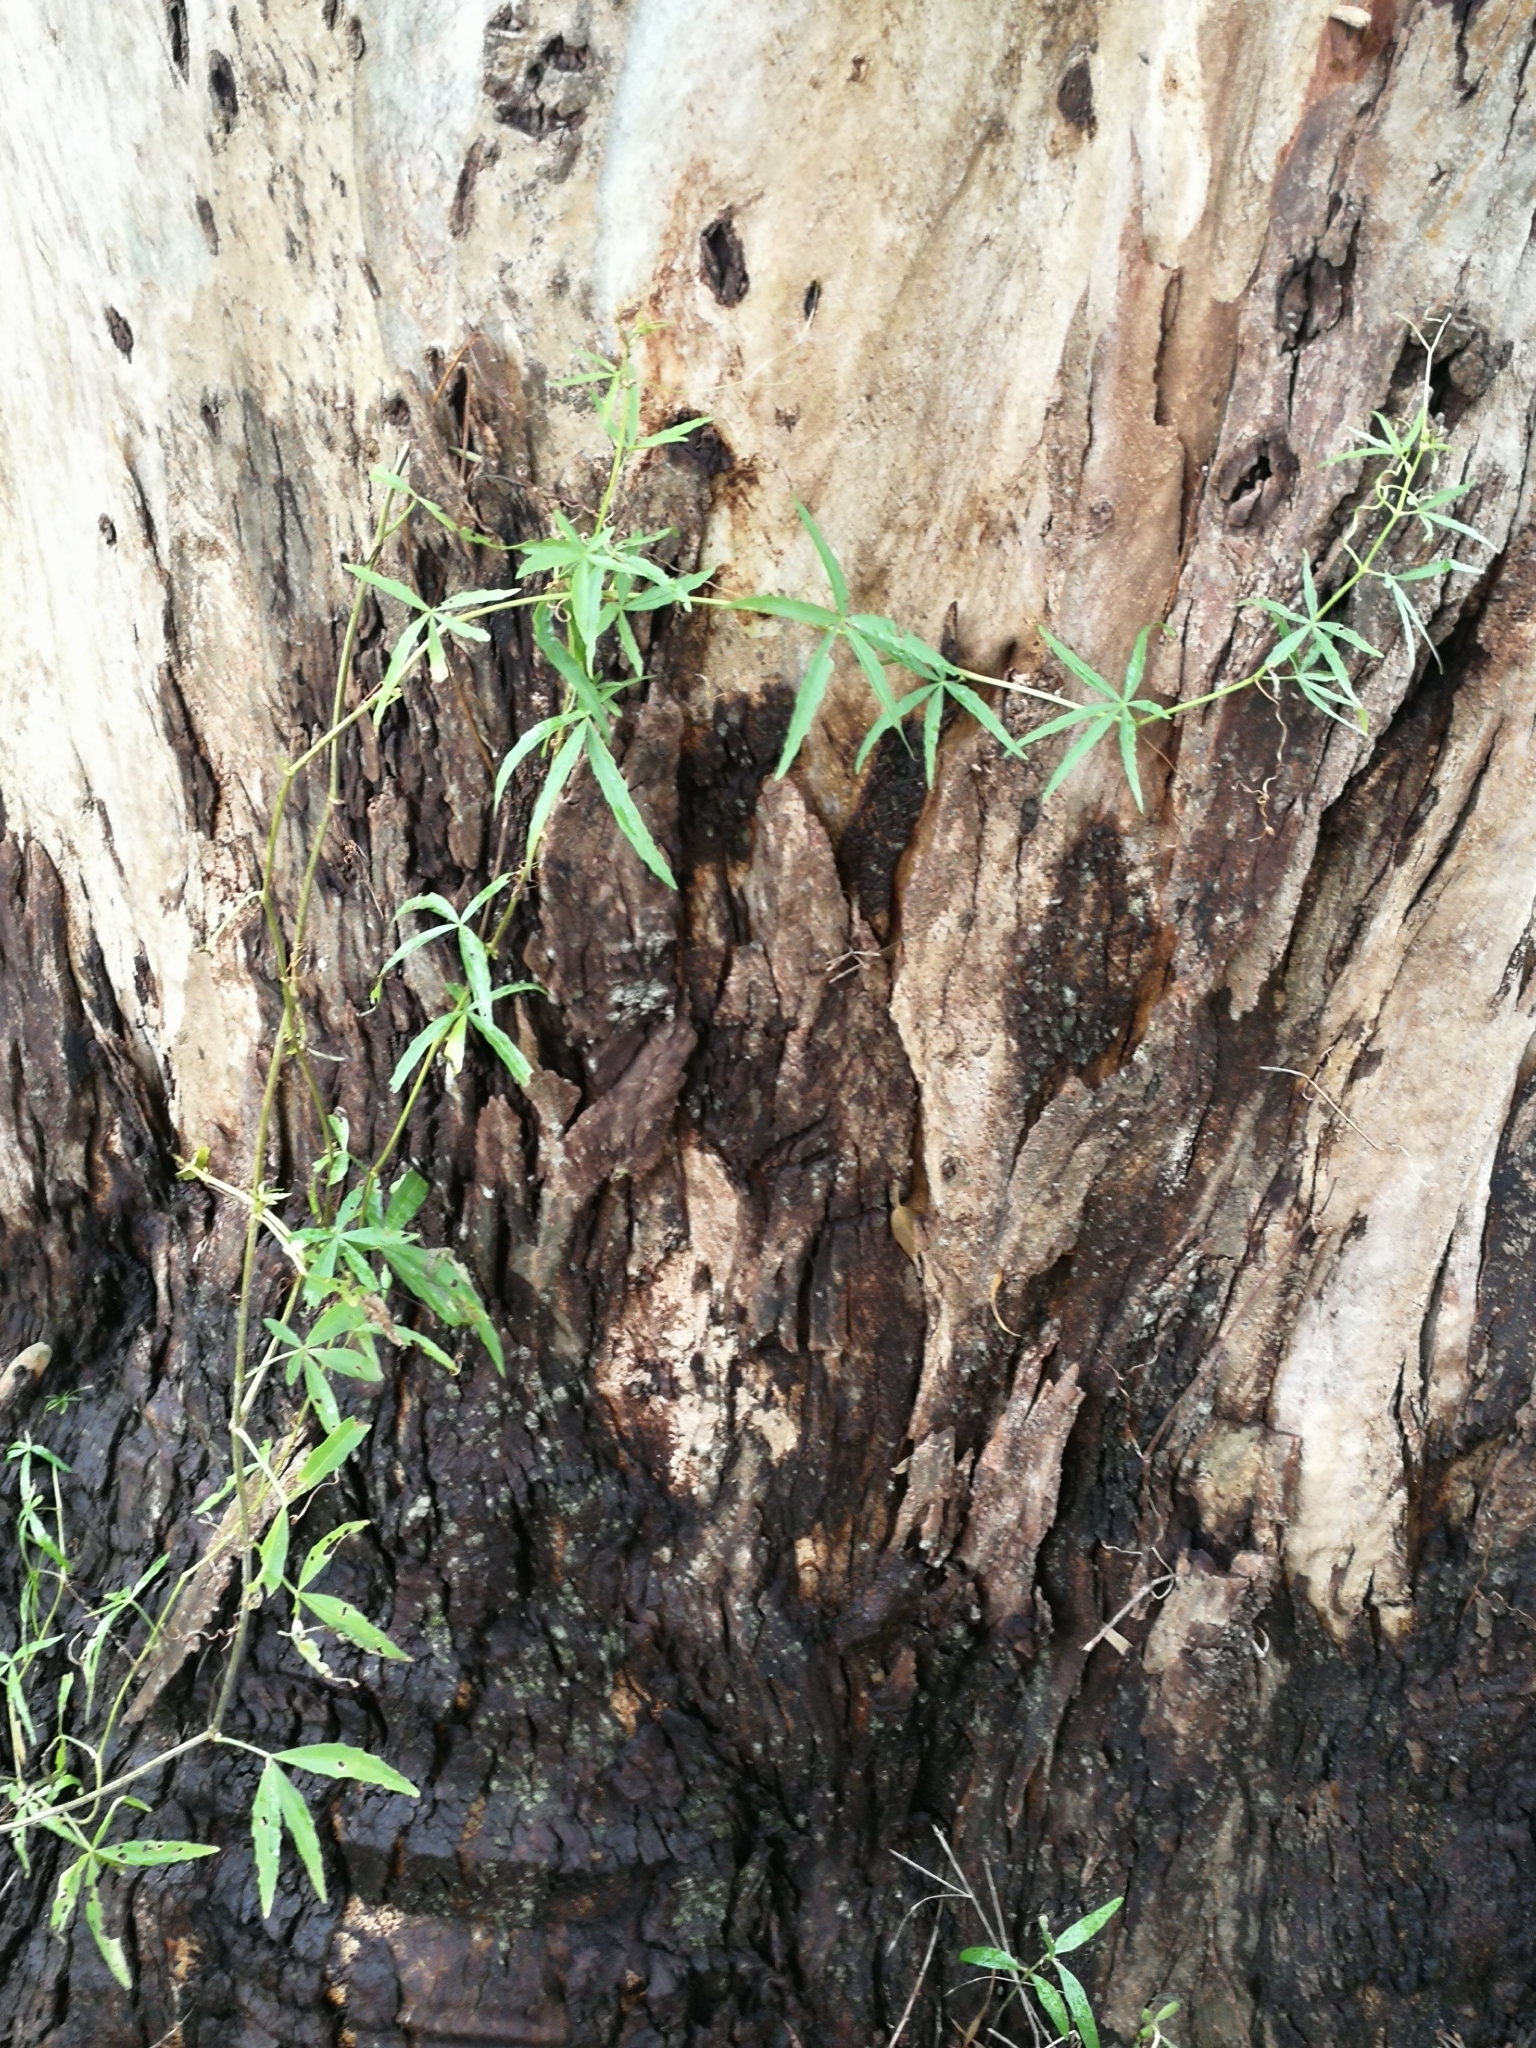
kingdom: Plantae
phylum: Tracheophyta
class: Magnoliopsida
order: Malpighiales
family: Passifloraceae
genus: Passiflora
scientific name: Passiflora caerulea
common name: Blue passionflower
